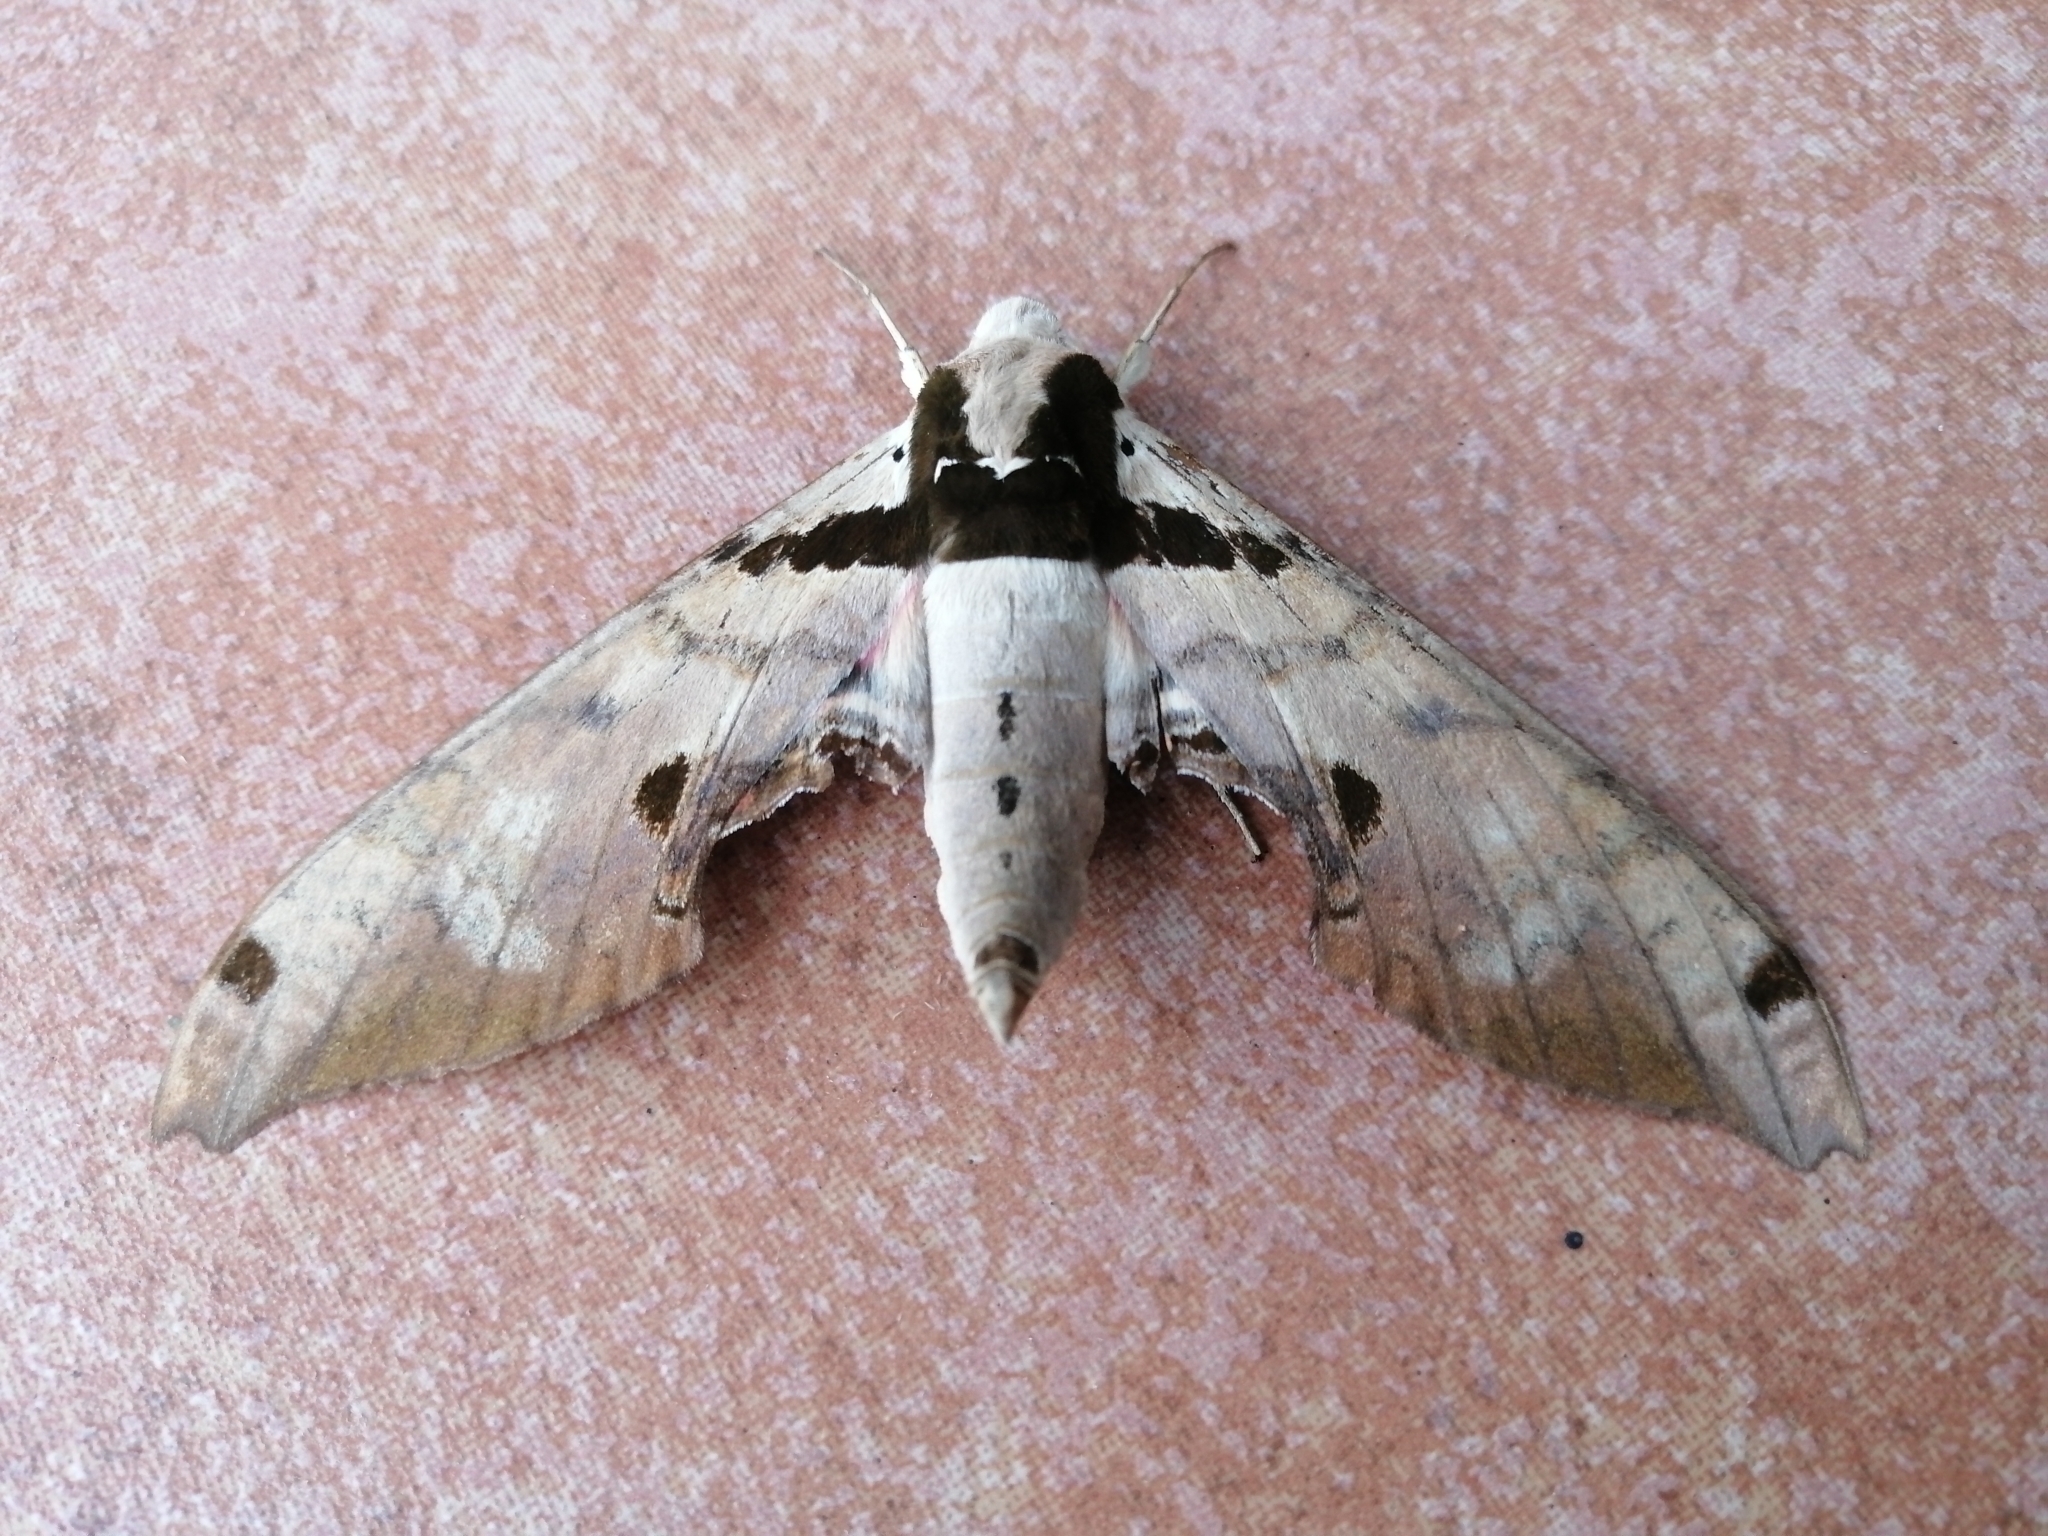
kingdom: Animalia
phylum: Arthropoda
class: Insecta
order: Lepidoptera
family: Sphingidae
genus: Adhemarius
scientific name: Adhemarius gannascus
